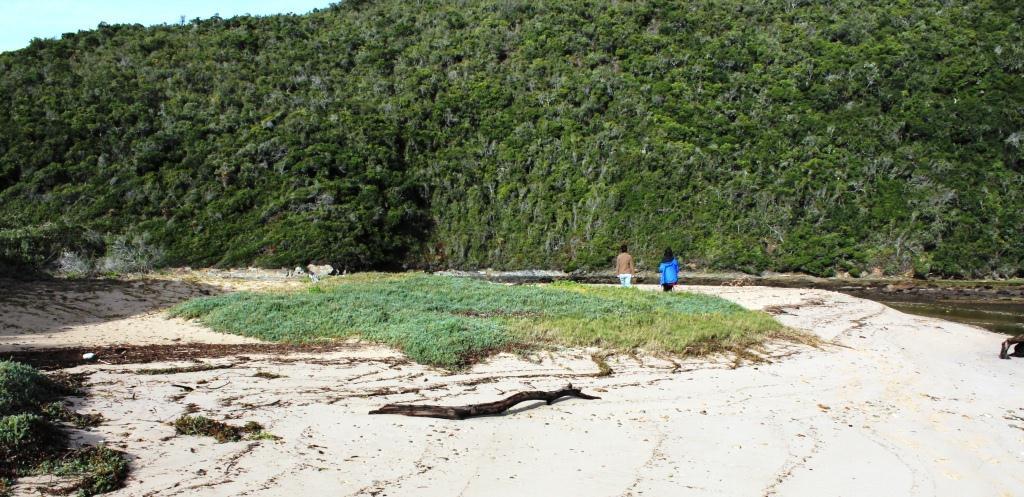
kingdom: Plantae
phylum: Tracheophyta
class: Magnoliopsida
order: Caryophyllales
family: Amaranthaceae
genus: Chenolea
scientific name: Chenolea diffusa
